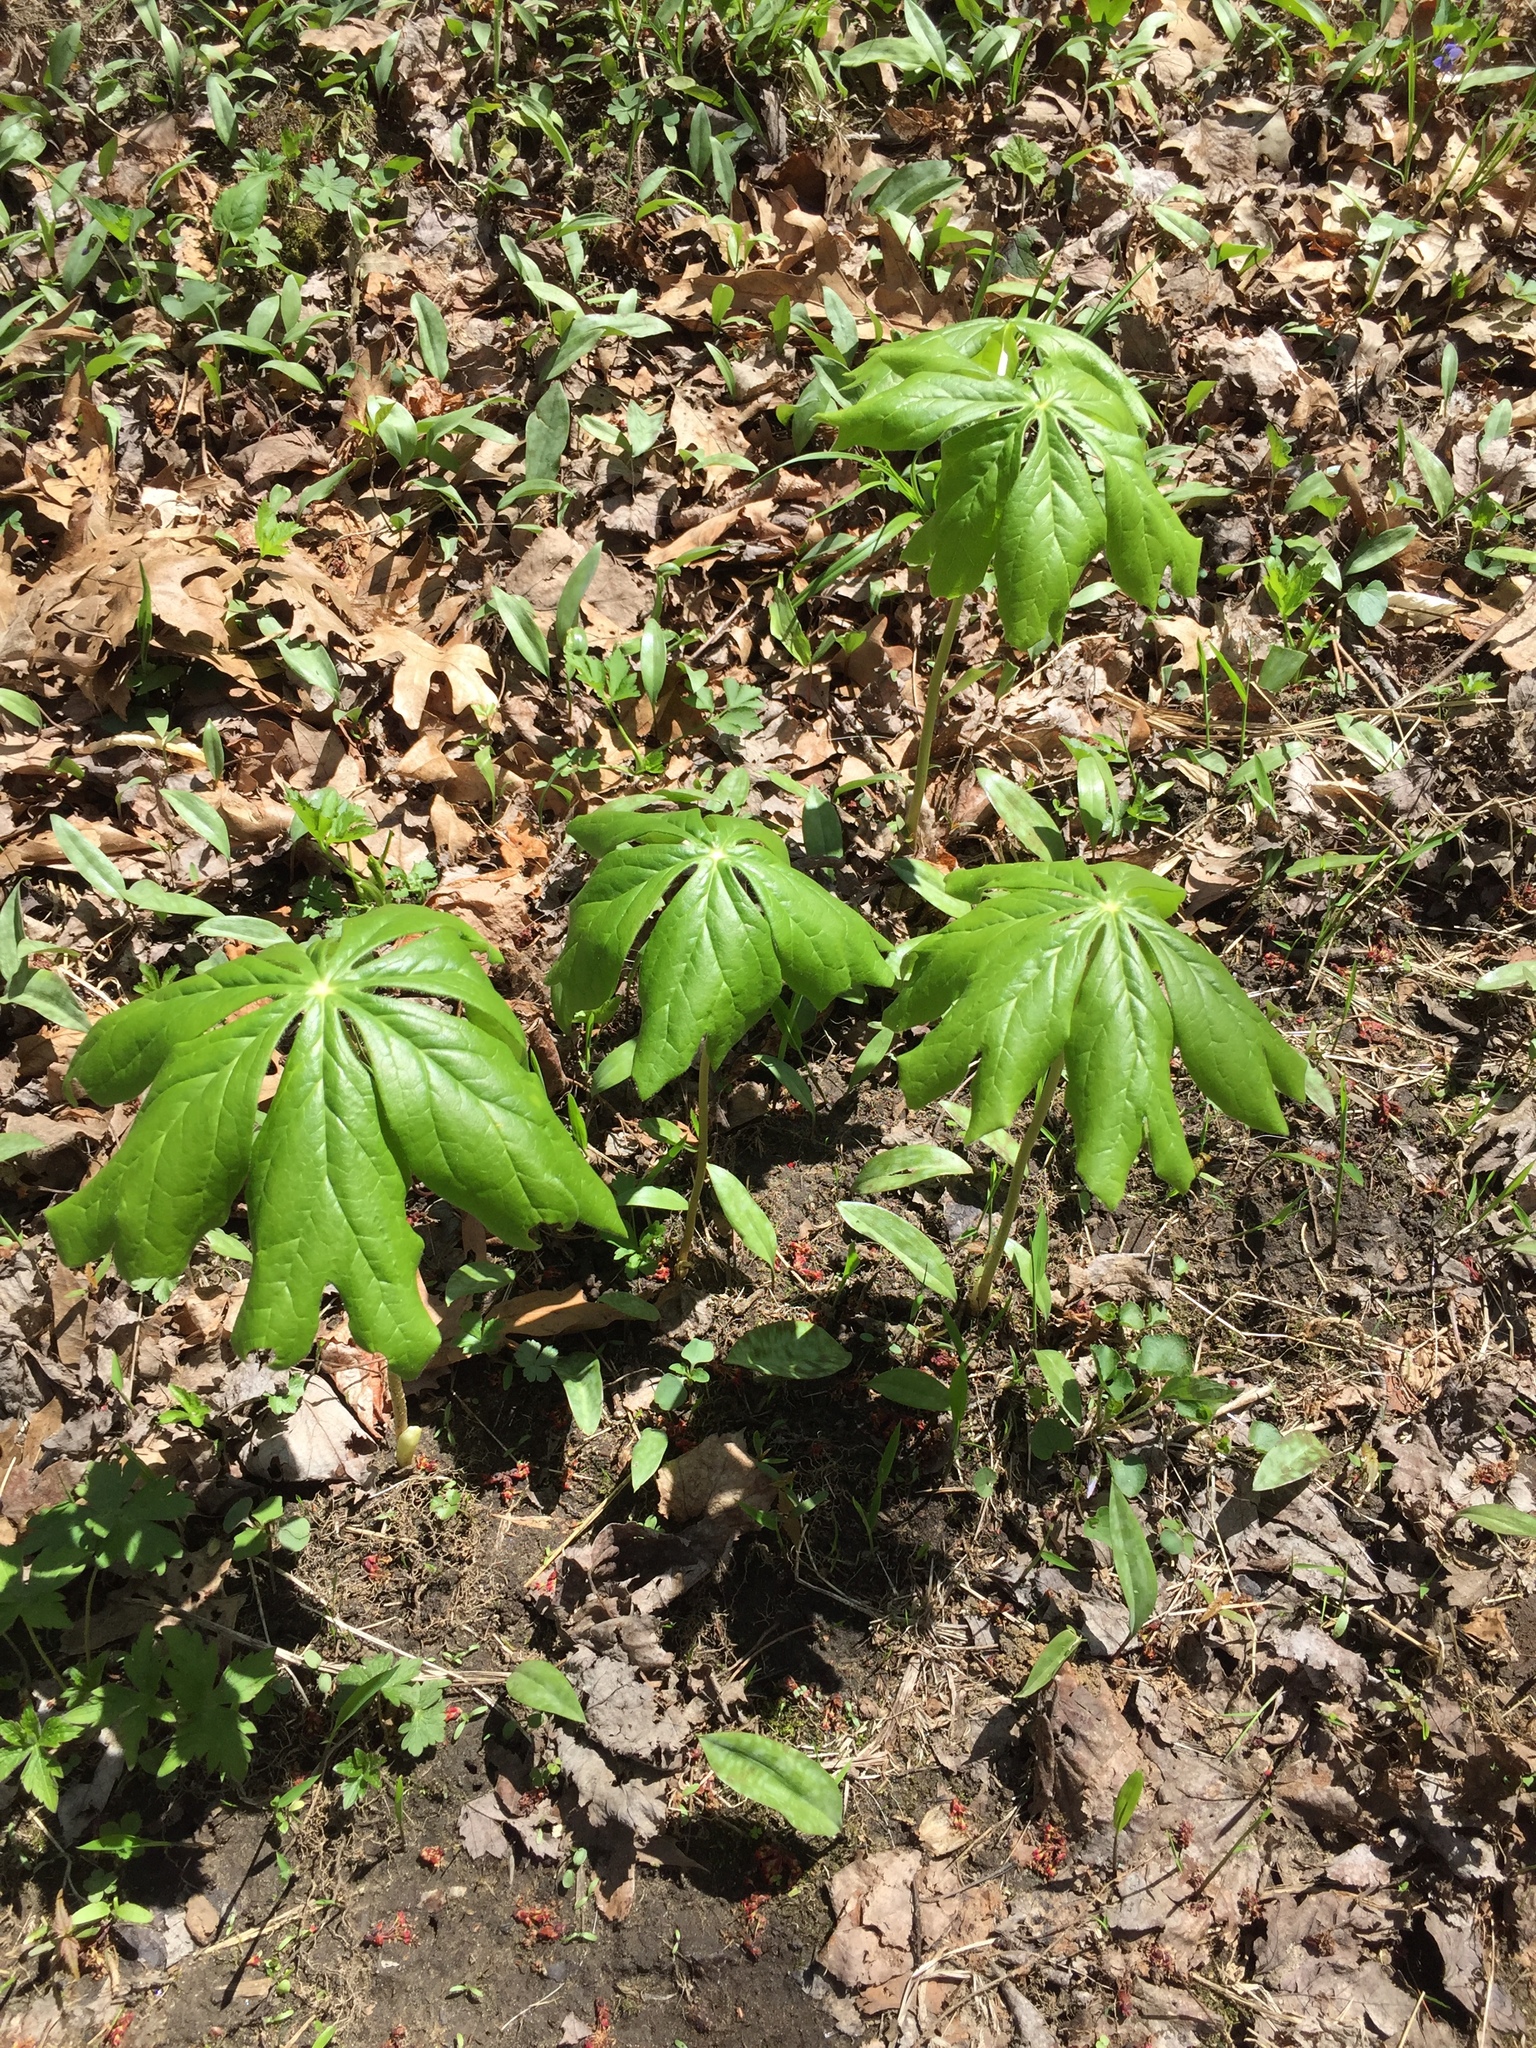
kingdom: Plantae
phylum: Tracheophyta
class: Magnoliopsida
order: Ranunculales
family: Berberidaceae
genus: Podophyllum
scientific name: Podophyllum peltatum
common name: Wild mandrake
